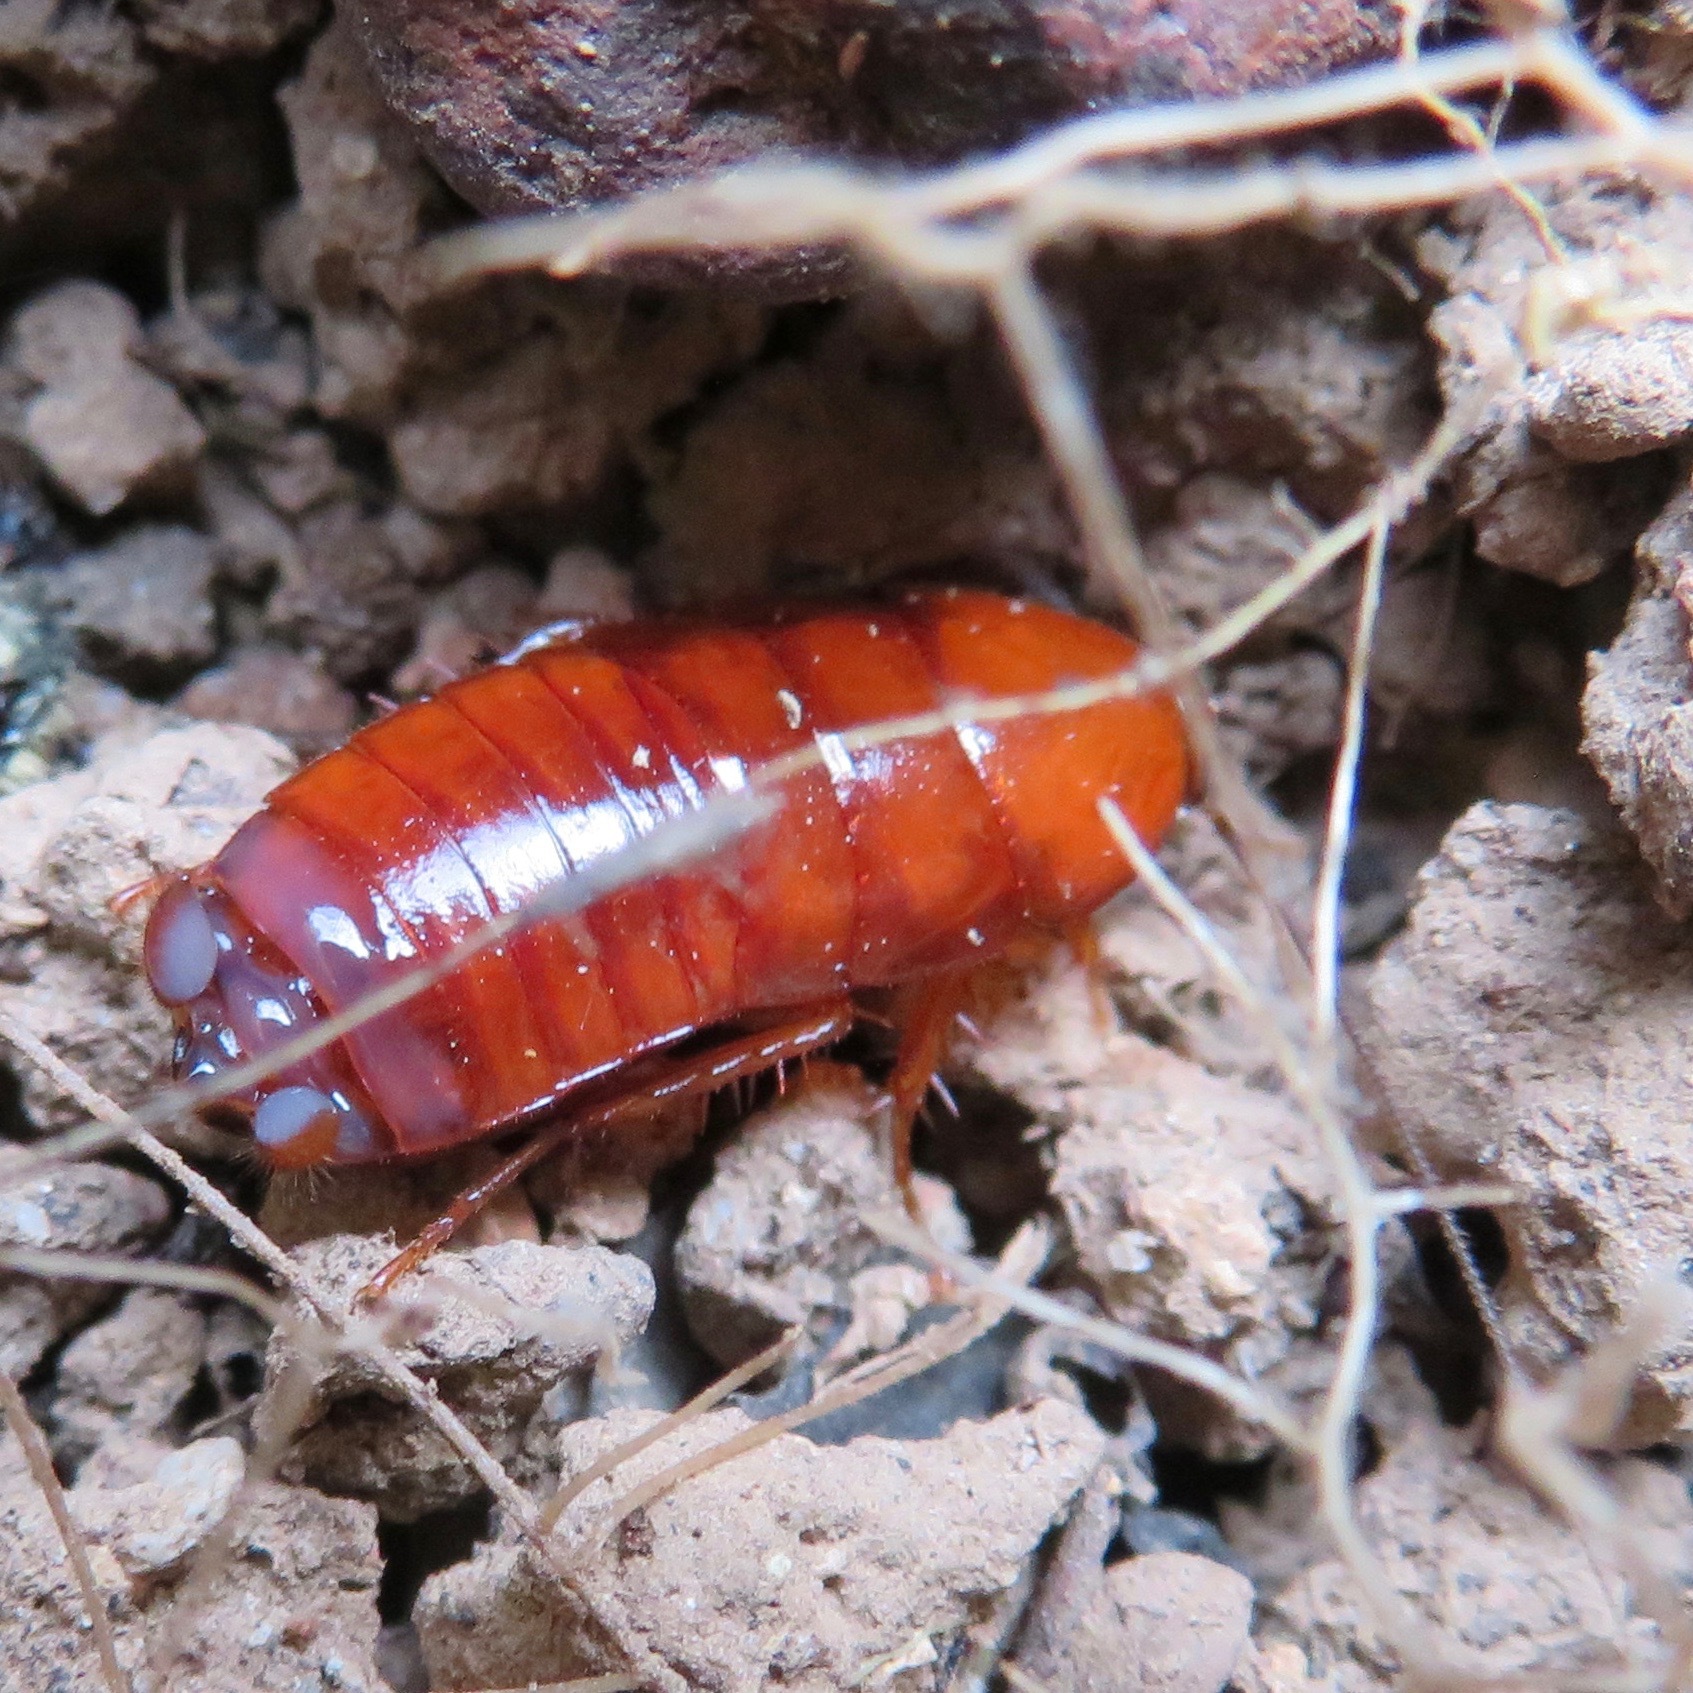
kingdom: Animalia
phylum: Arthropoda
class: Insecta
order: Blattodea
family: Ectobiidae
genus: Parcoblatta
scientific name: Parcoblatta americana
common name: Western wood cockroach
